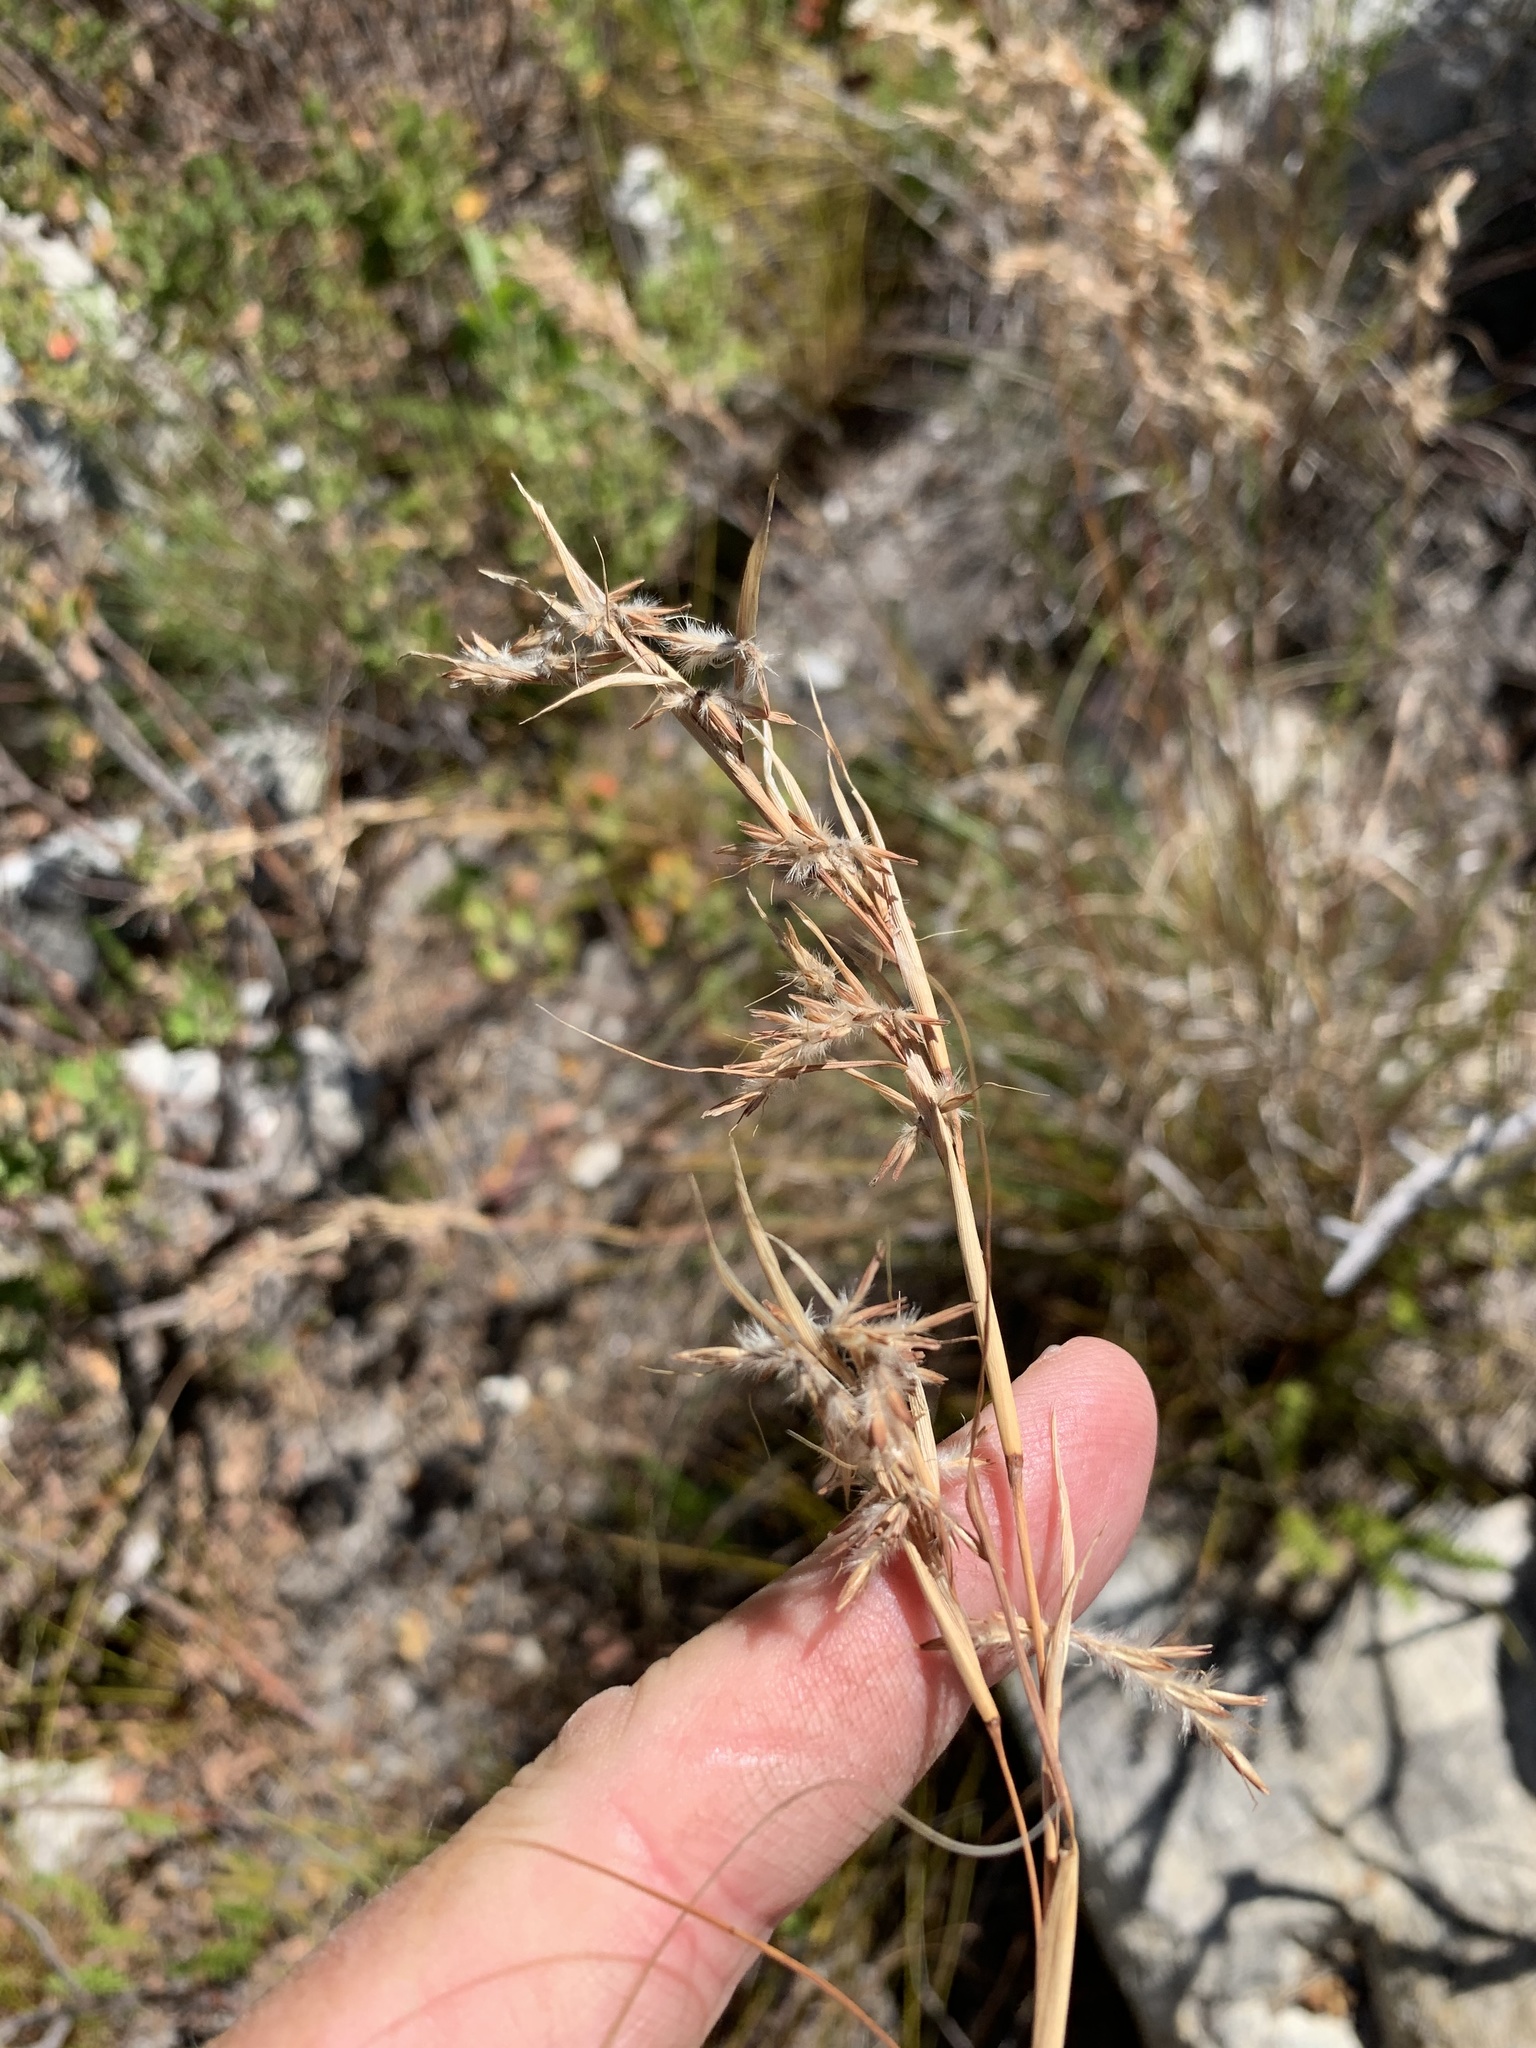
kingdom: Plantae
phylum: Tracheophyta
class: Liliopsida
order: Poales
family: Poaceae
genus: Cymbopogon
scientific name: Cymbopogon marginatus
